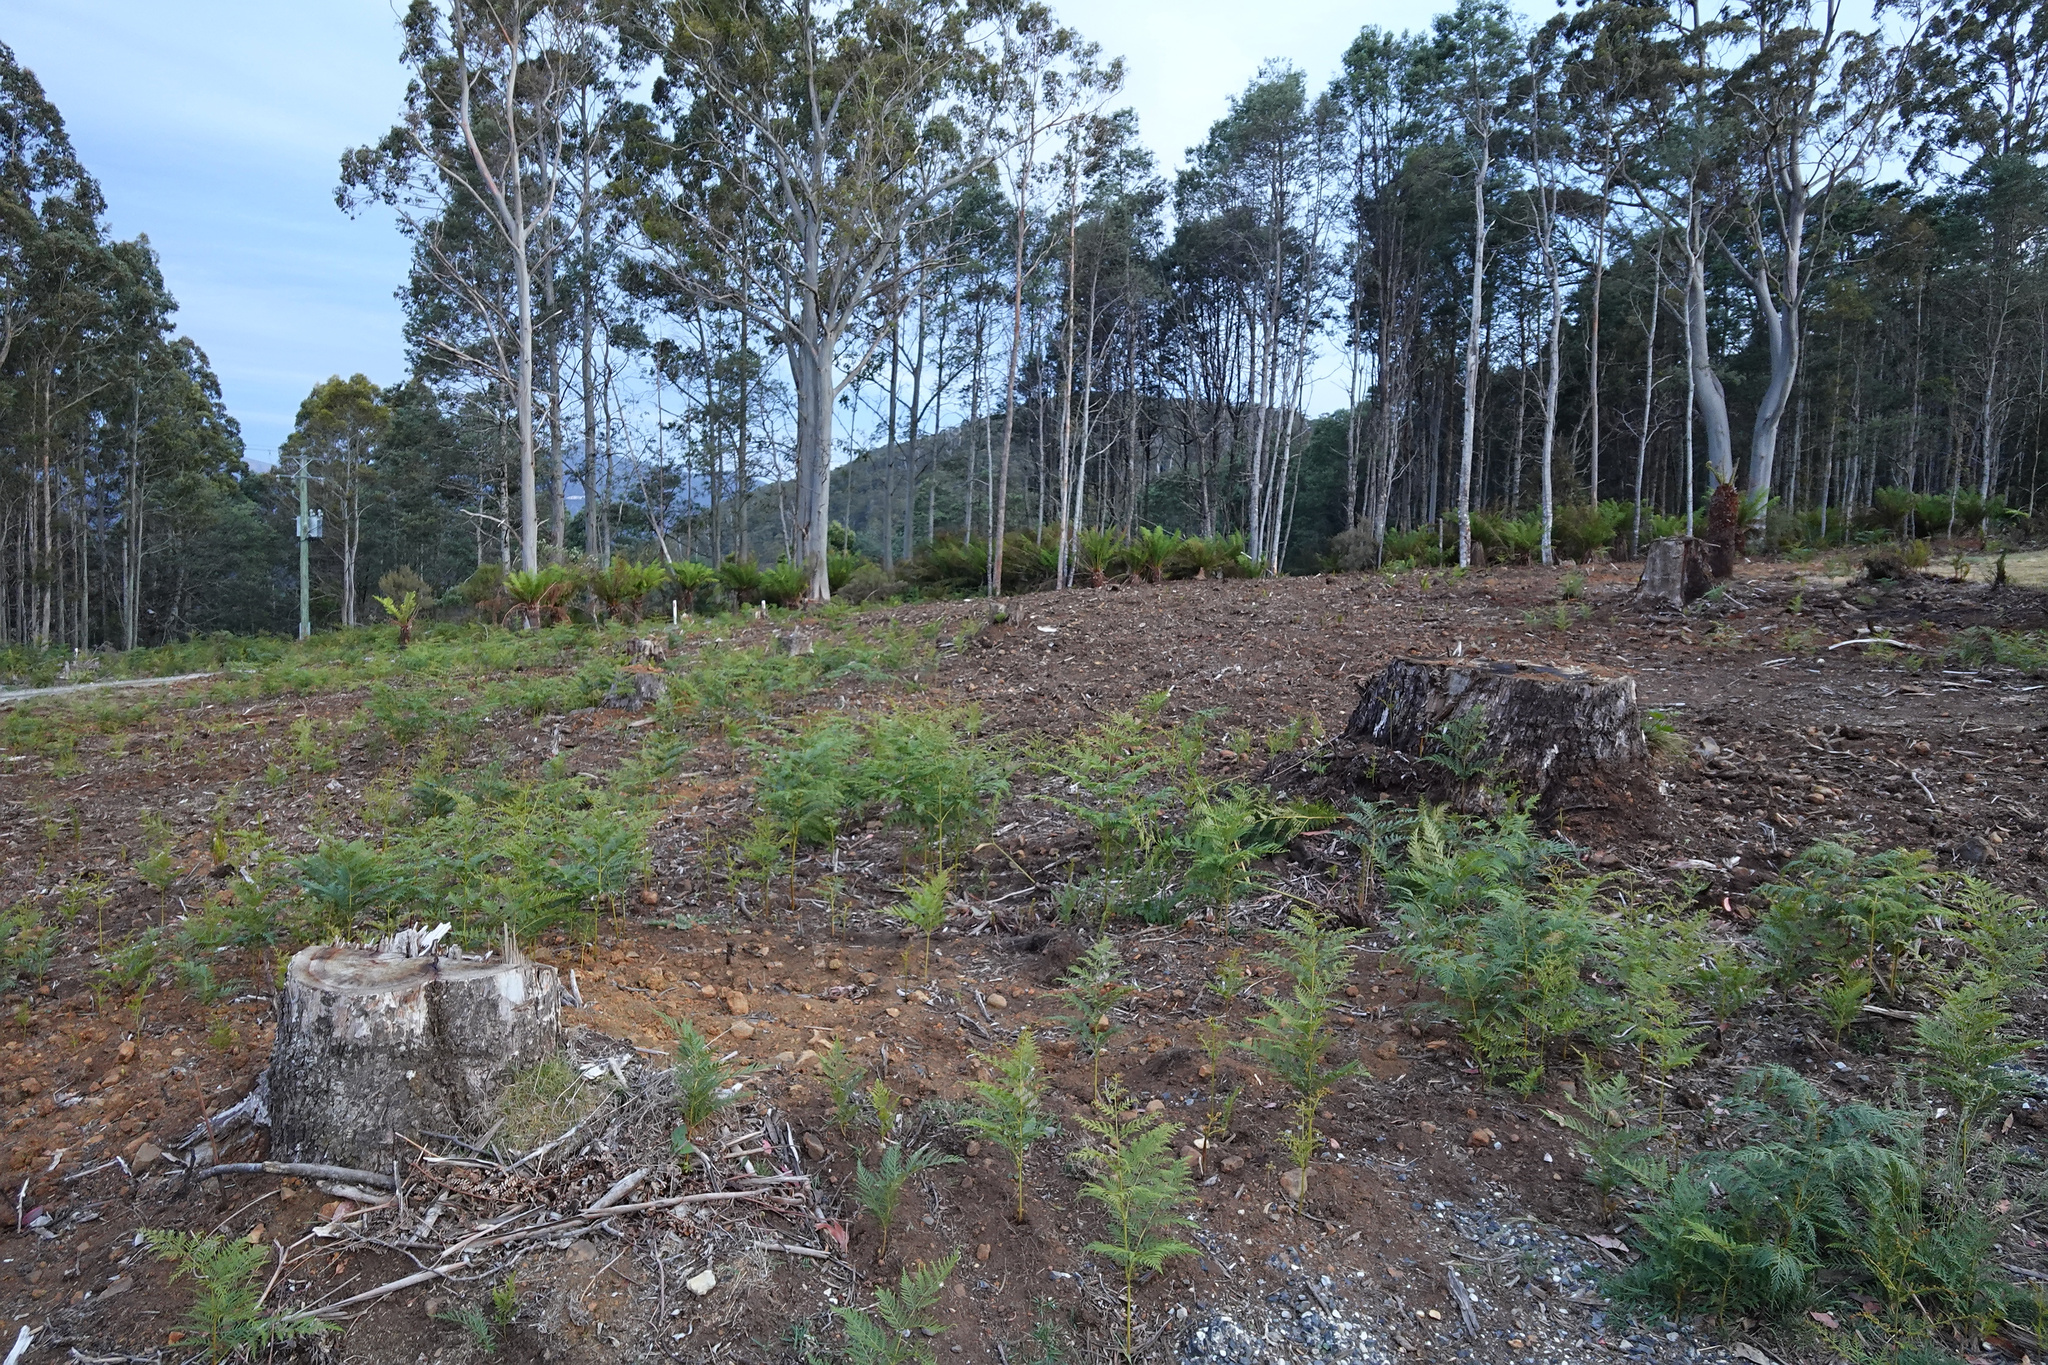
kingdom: Plantae
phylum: Tracheophyta
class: Polypodiopsida
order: Polypodiales
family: Dennstaedtiaceae
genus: Pteridium
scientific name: Pteridium esculentum
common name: Bracken fern
